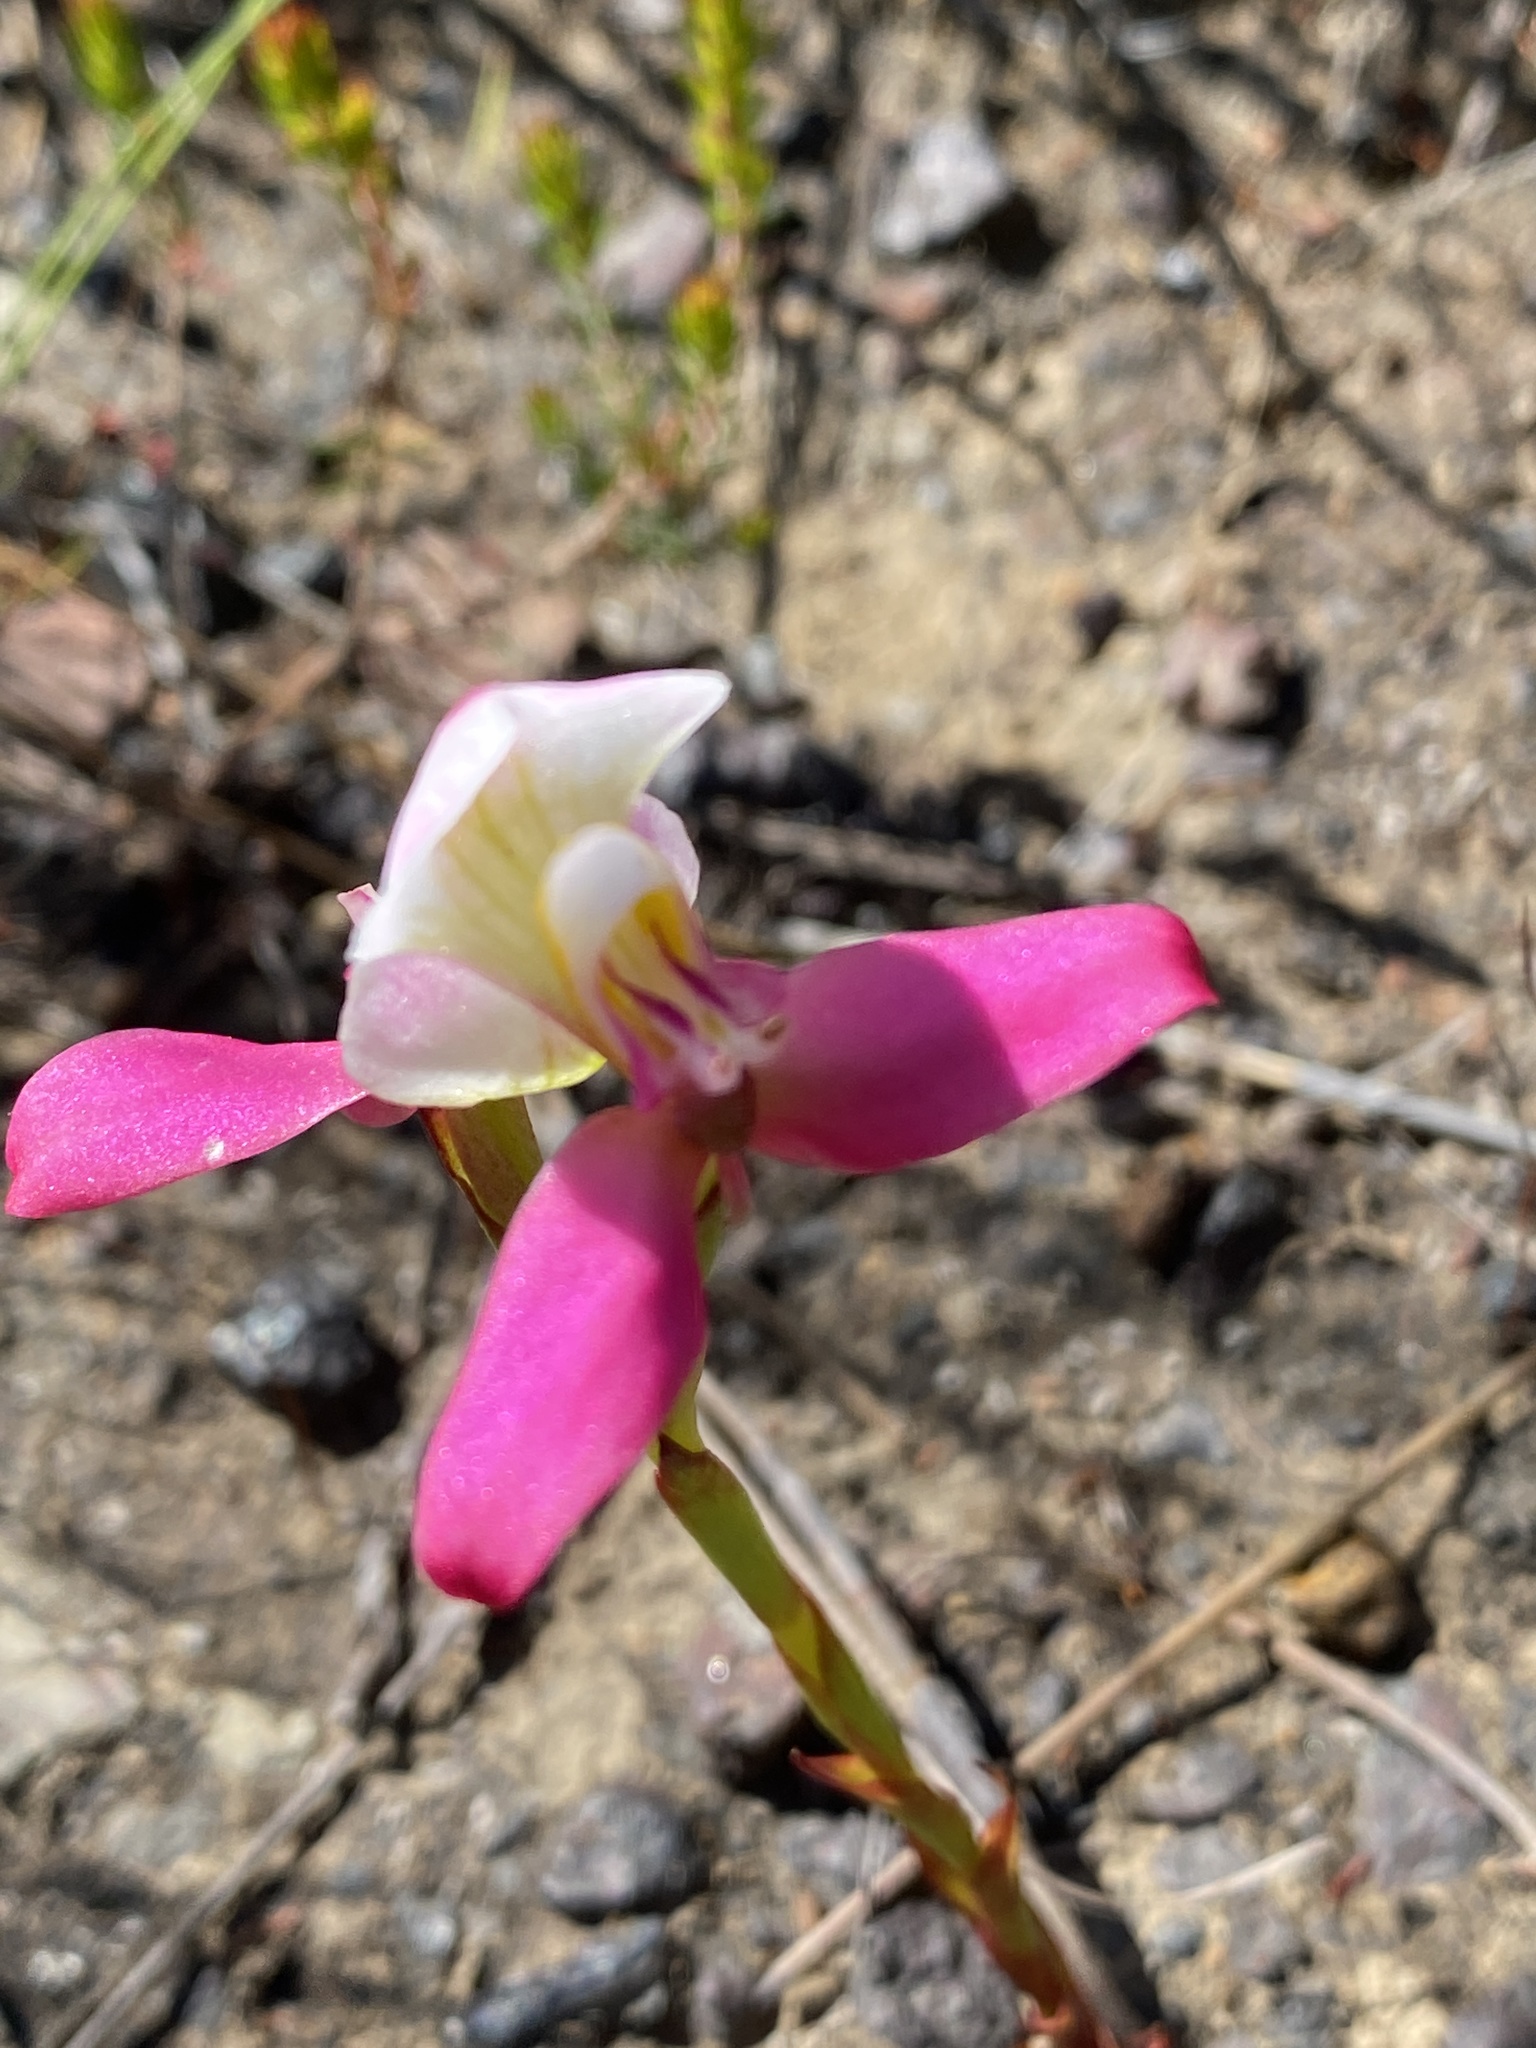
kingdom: Plantae
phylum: Tracheophyta
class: Liliopsida
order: Asparagales
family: Orchidaceae
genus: Disa
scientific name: Disa filicornis
